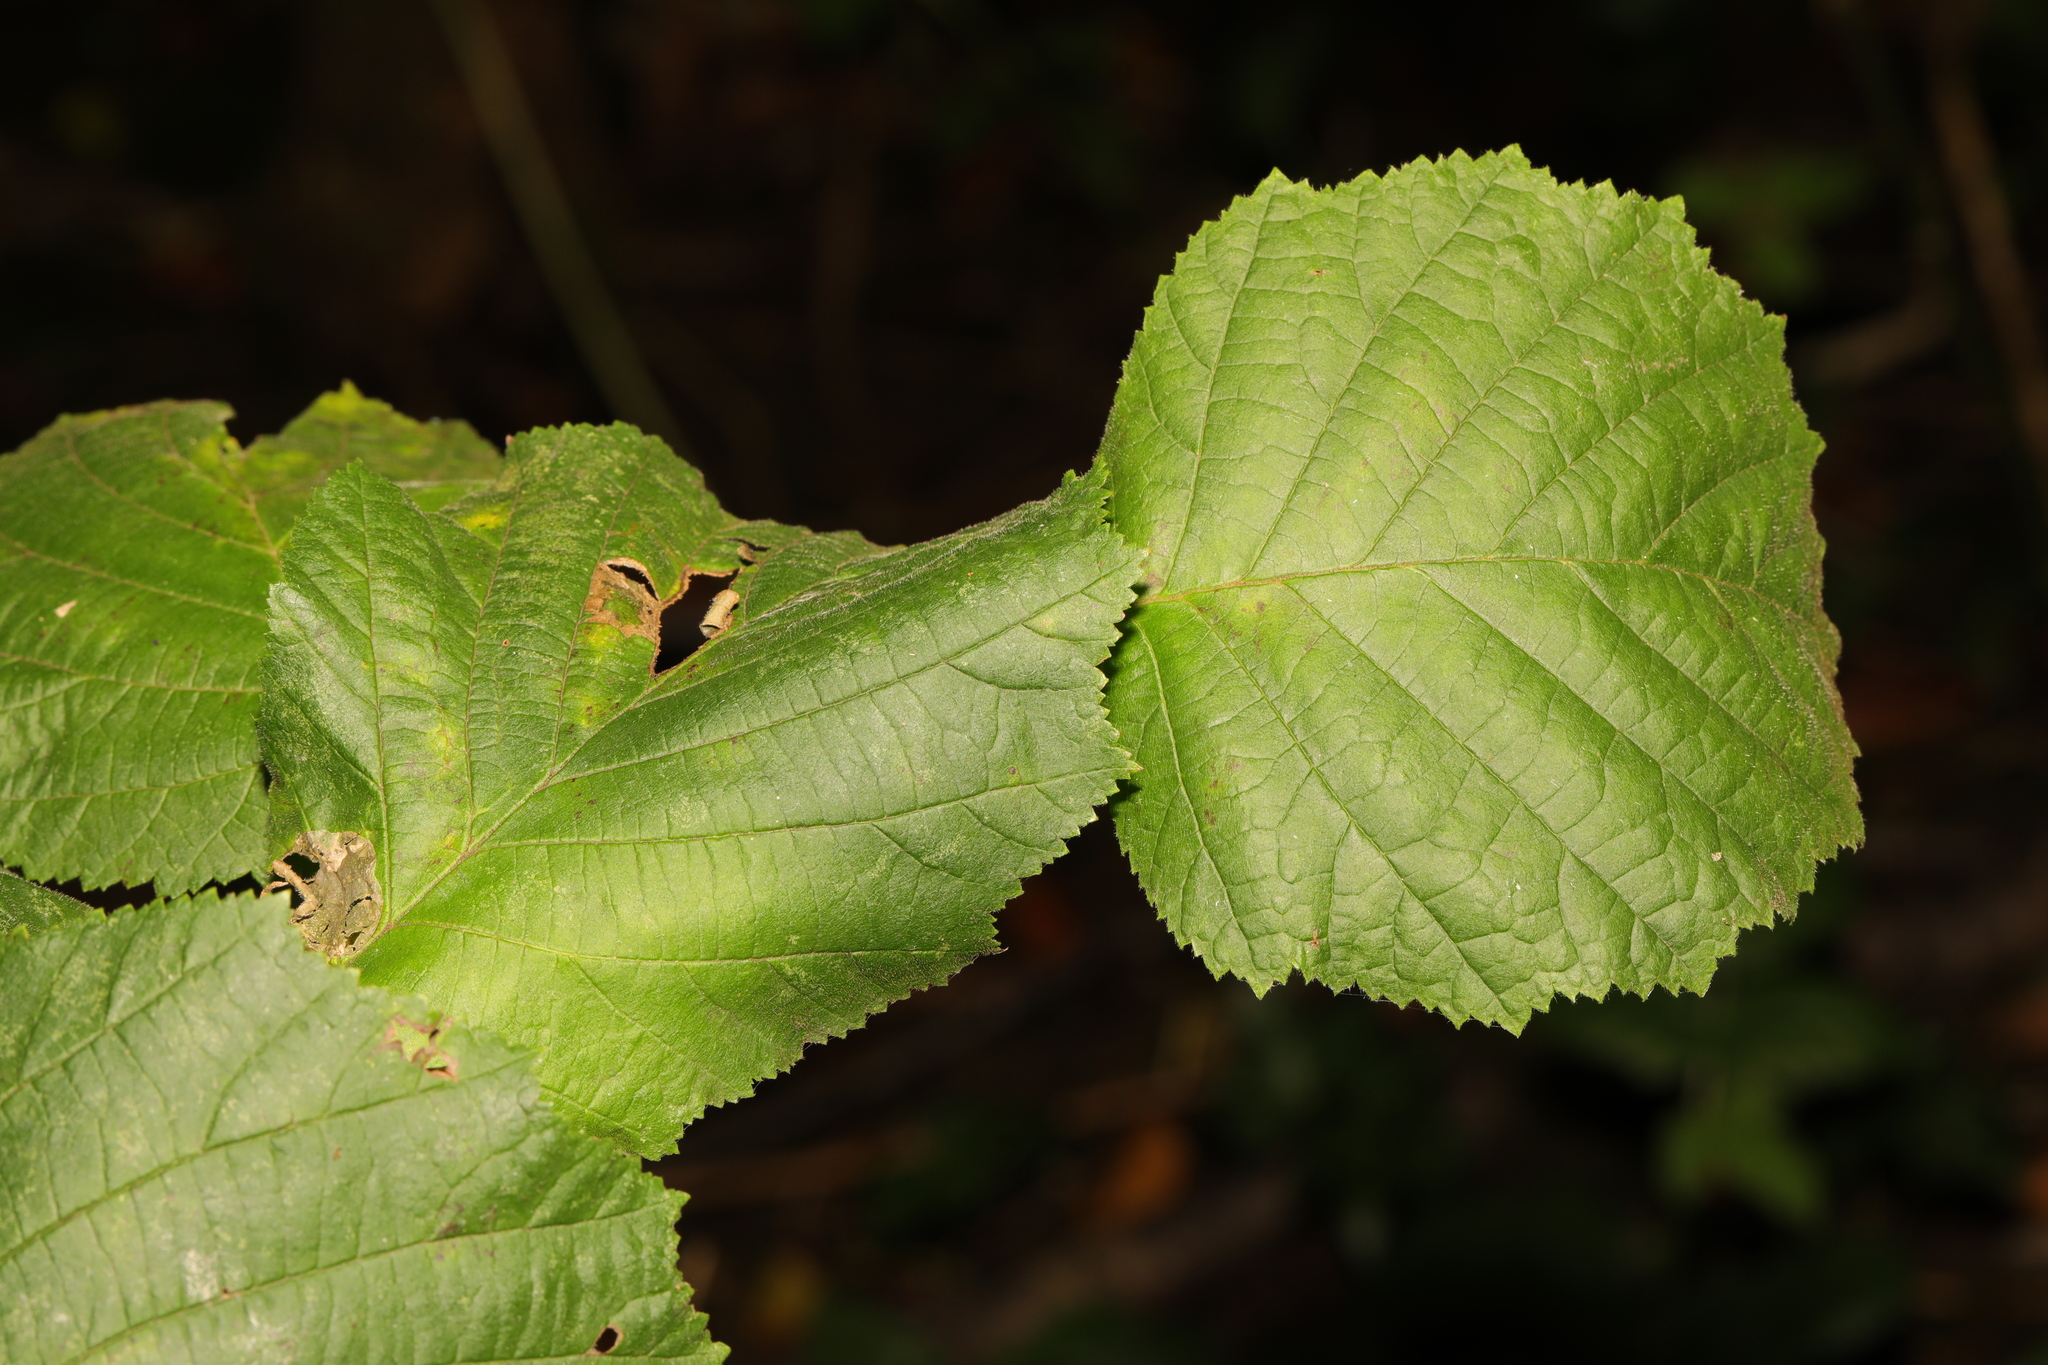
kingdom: Plantae
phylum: Tracheophyta
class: Magnoliopsida
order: Fagales
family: Betulaceae
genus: Corylus
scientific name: Corylus avellana
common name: European hazel
